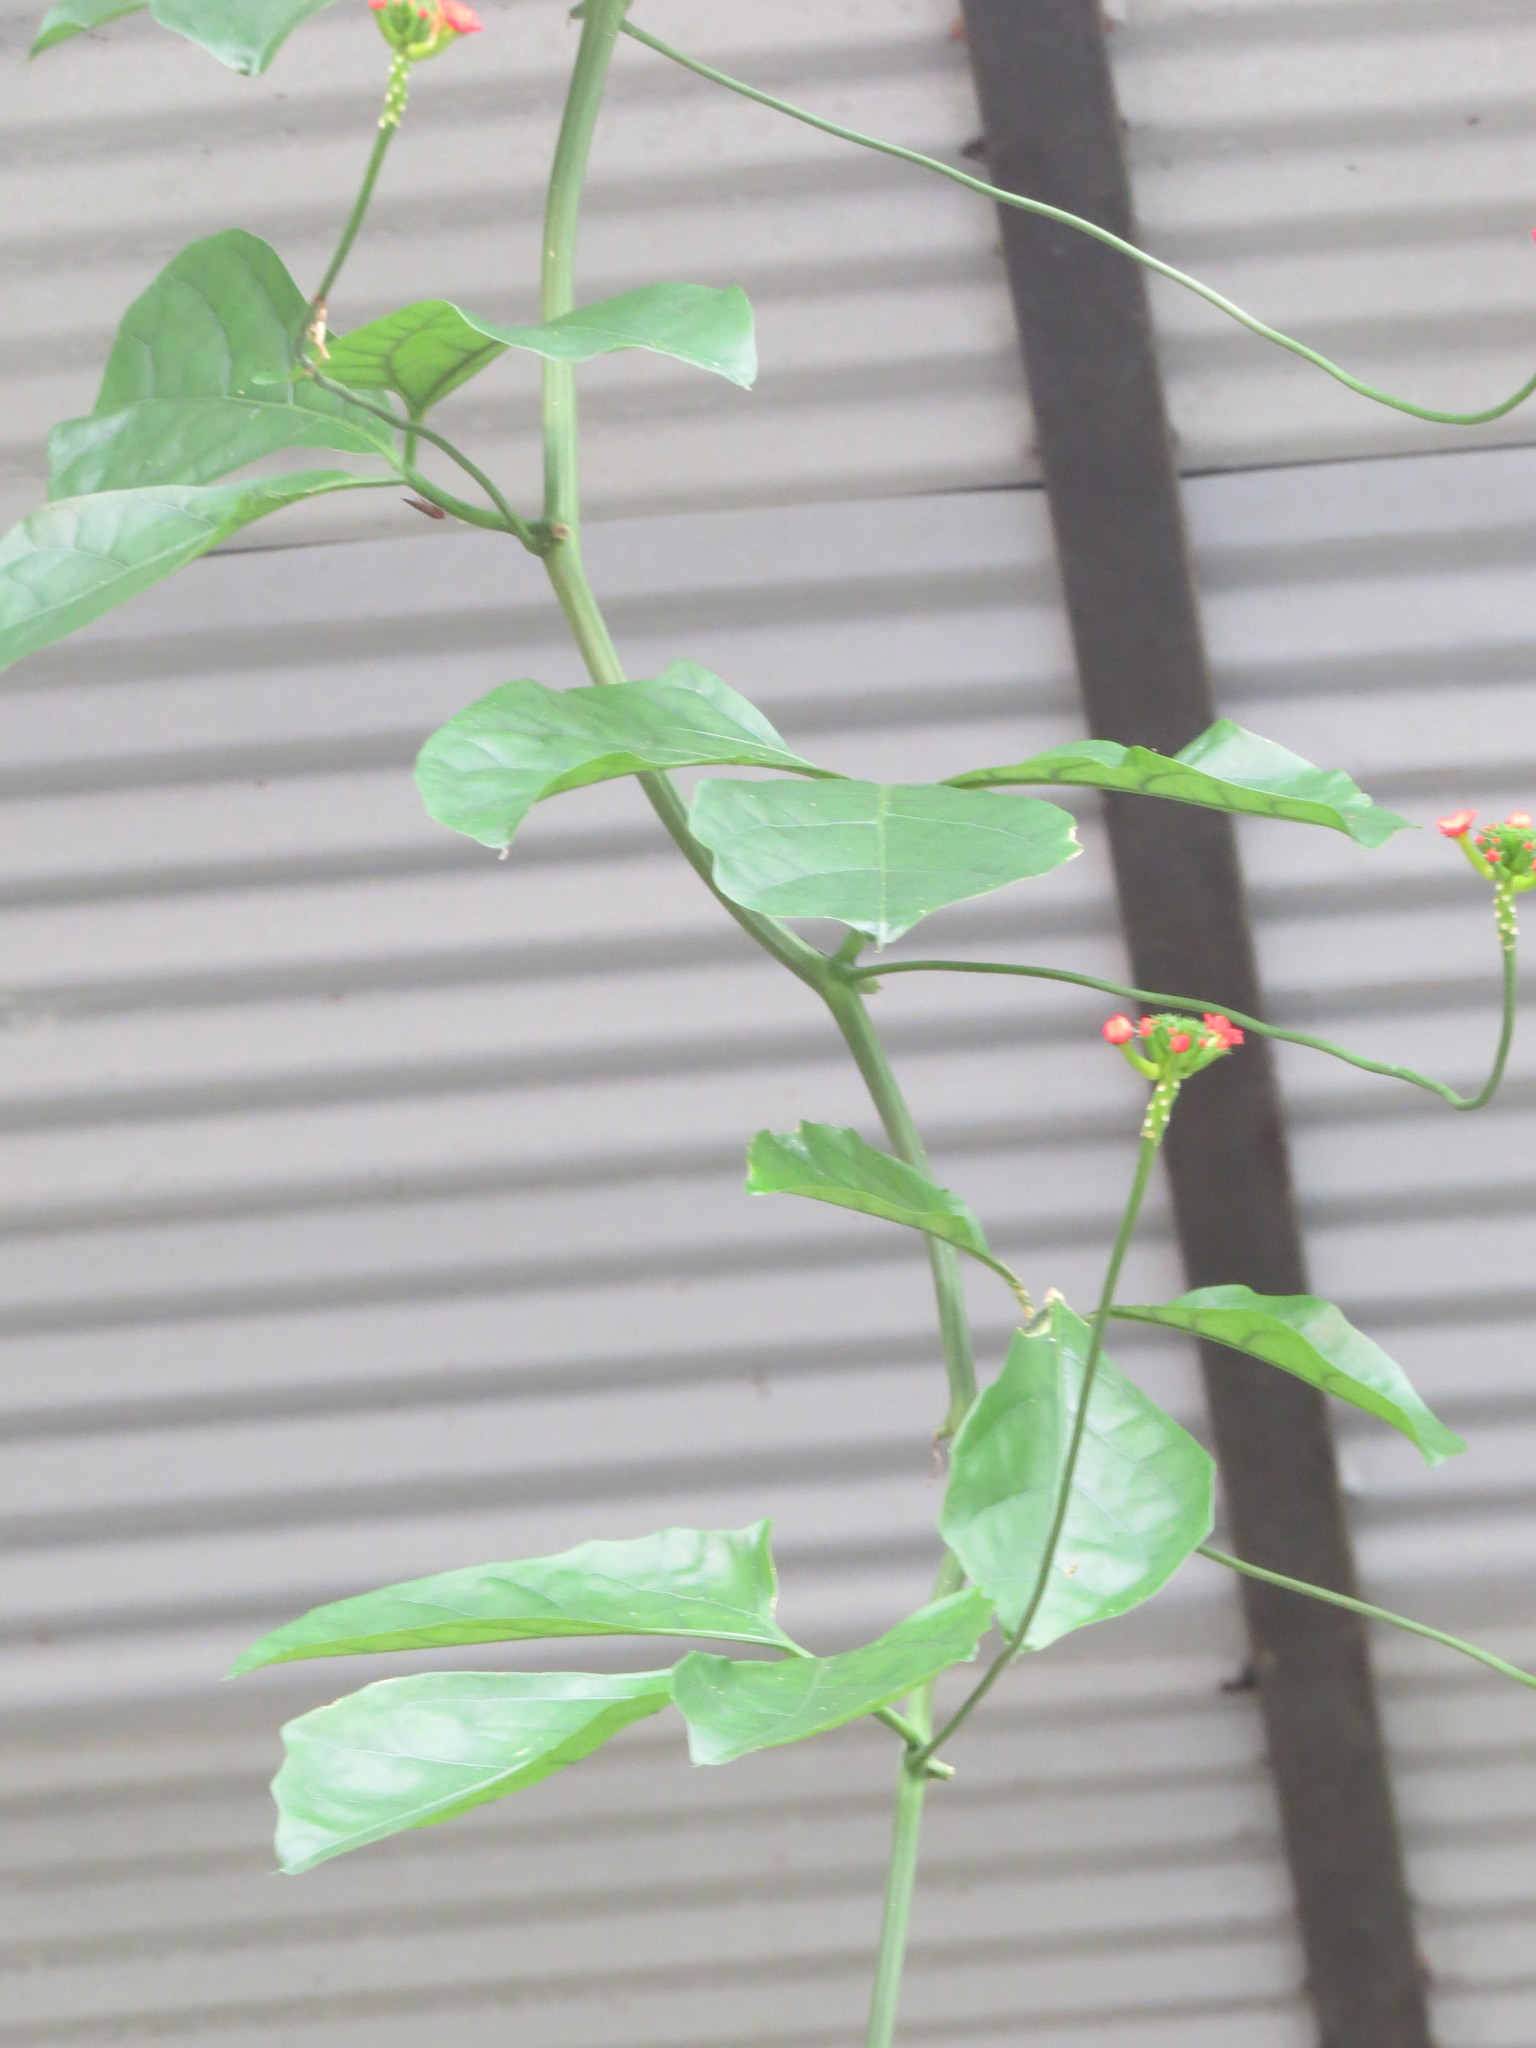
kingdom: Plantae
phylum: Tracheophyta
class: Magnoliopsida
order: Cucurbitales
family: Cucurbitaceae
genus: Psiguria
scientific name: Psiguria warscewiczii
